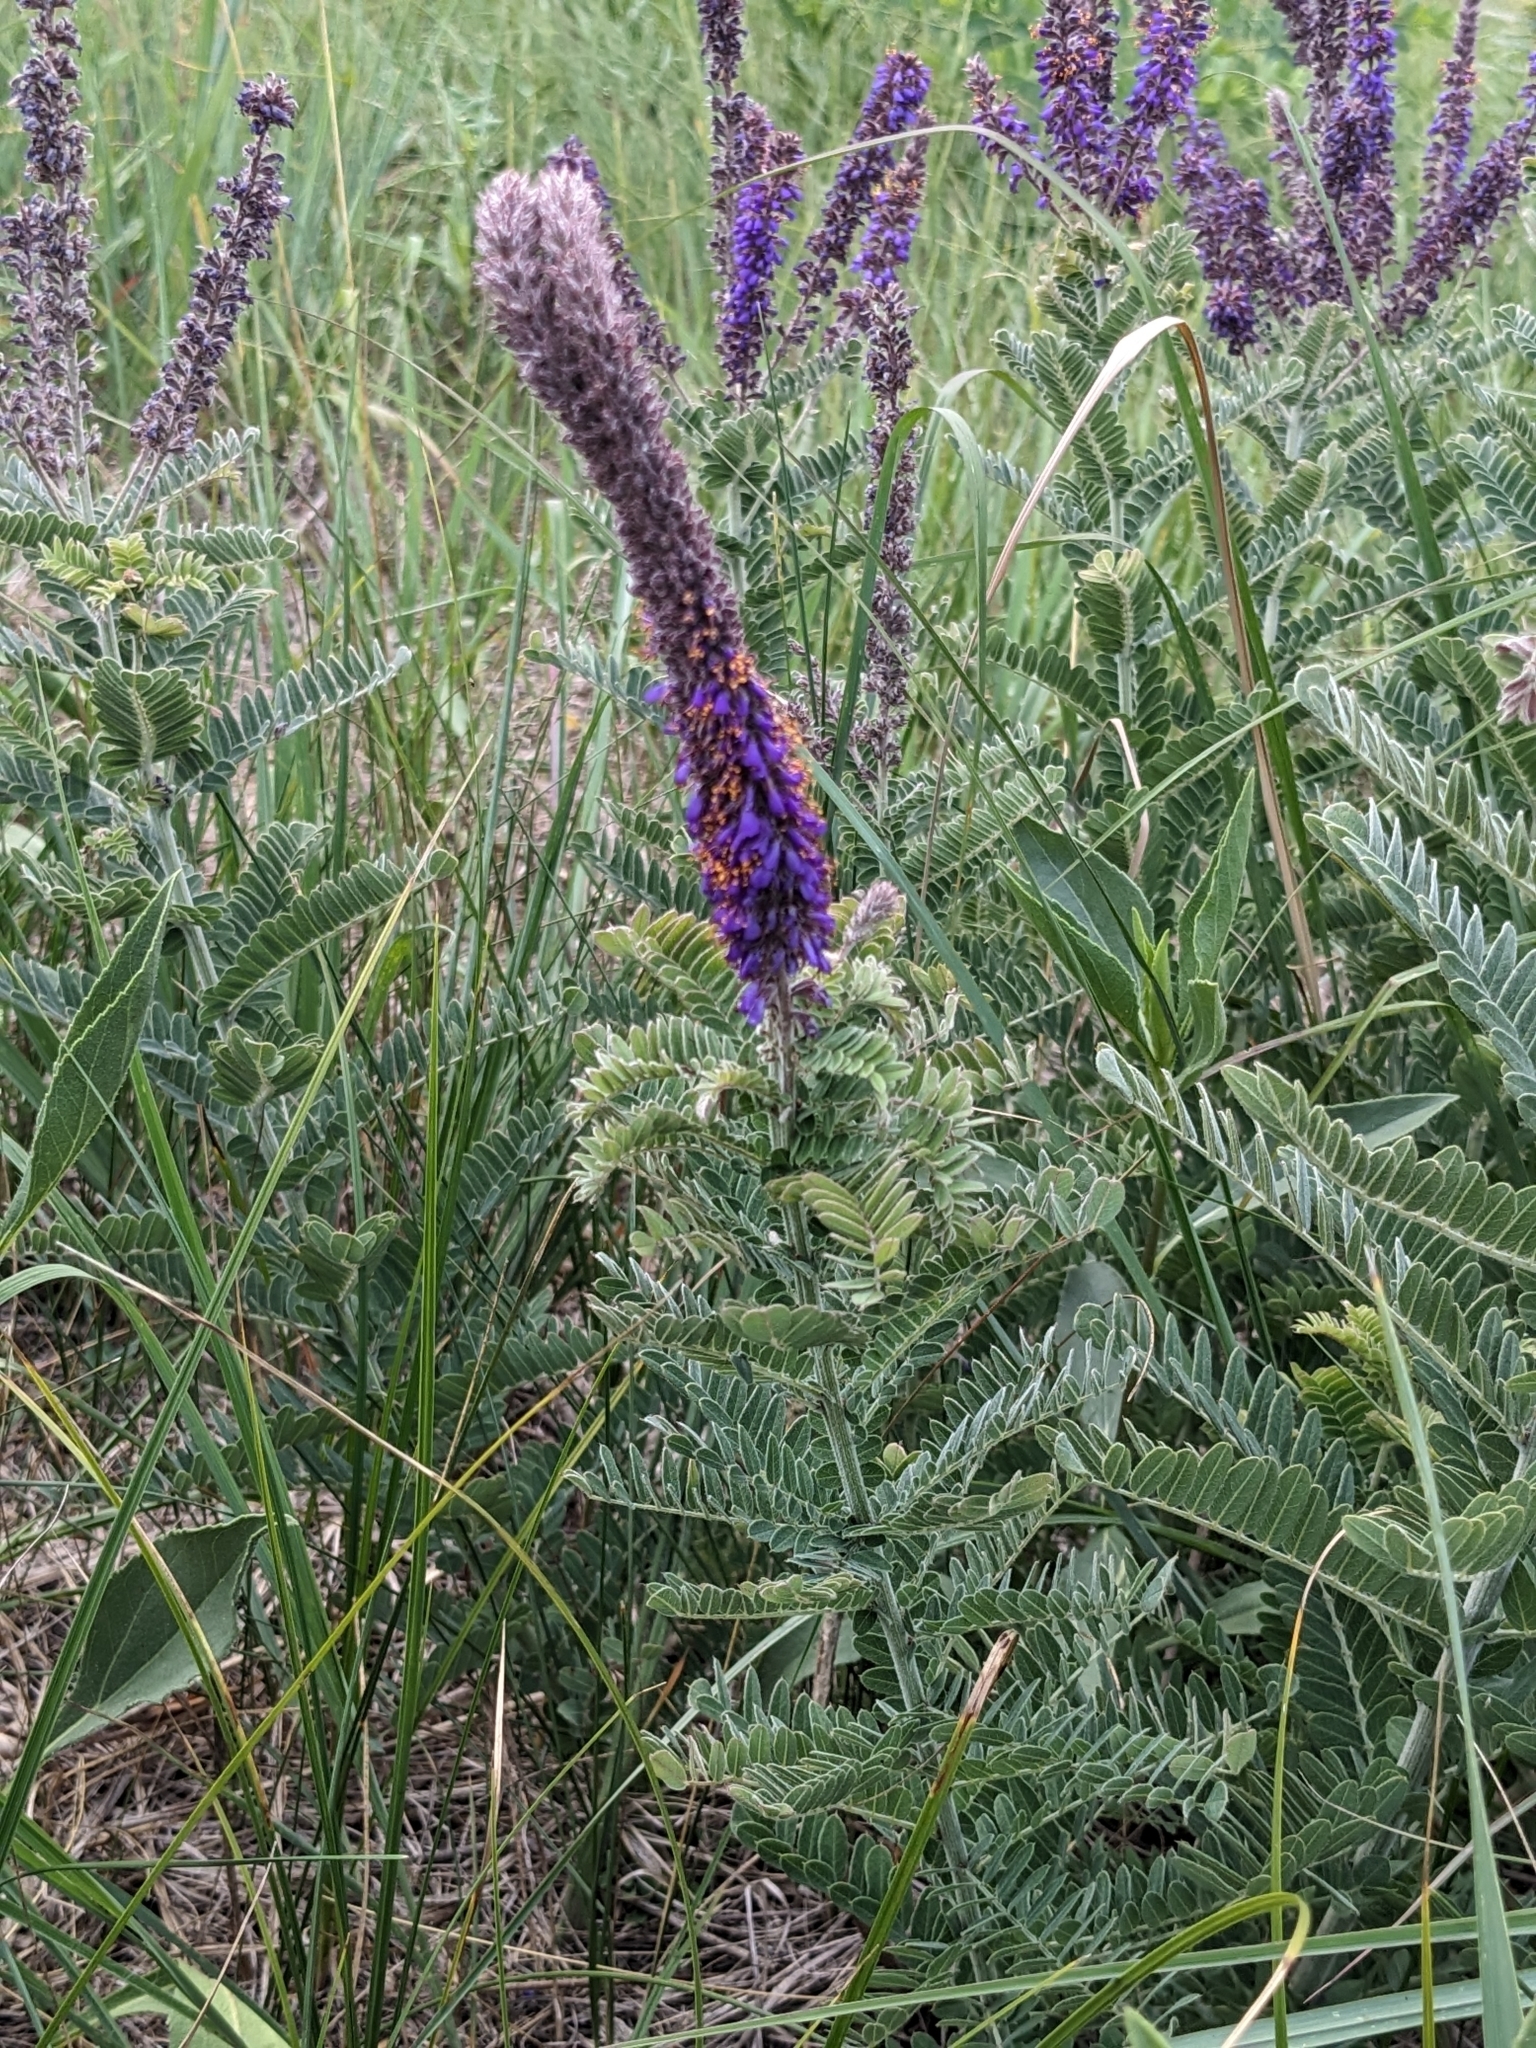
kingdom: Plantae
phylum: Tracheophyta
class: Magnoliopsida
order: Fabales
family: Fabaceae
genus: Amorpha
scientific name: Amorpha canescens
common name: Leadplant
